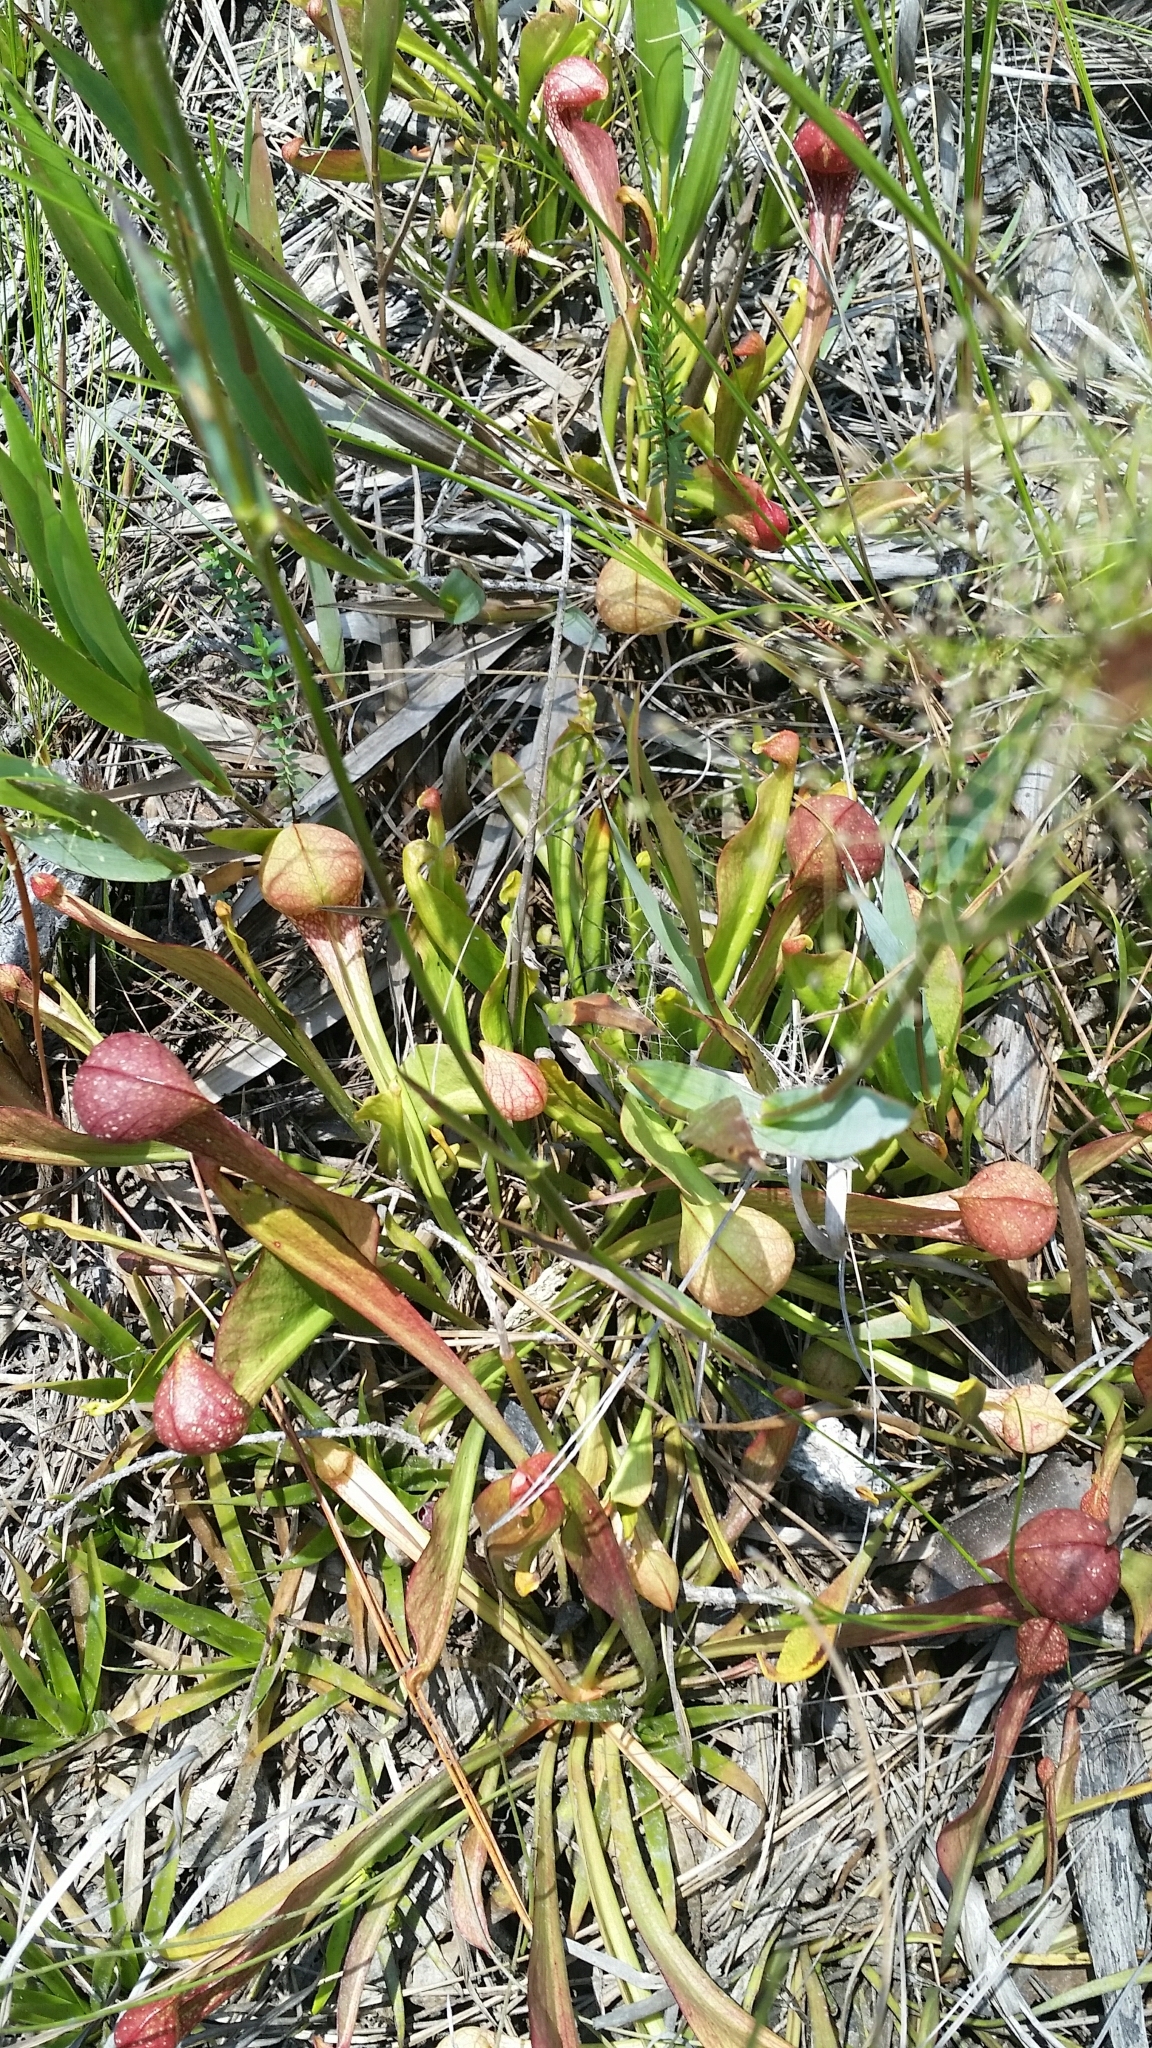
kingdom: Plantae
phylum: Tracheophyta
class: Magnoliopsida
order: Ericales
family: Sarraceniaceae
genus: Sarracenia
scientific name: Sarracenia psittacina
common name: Parrot pitcherplant
